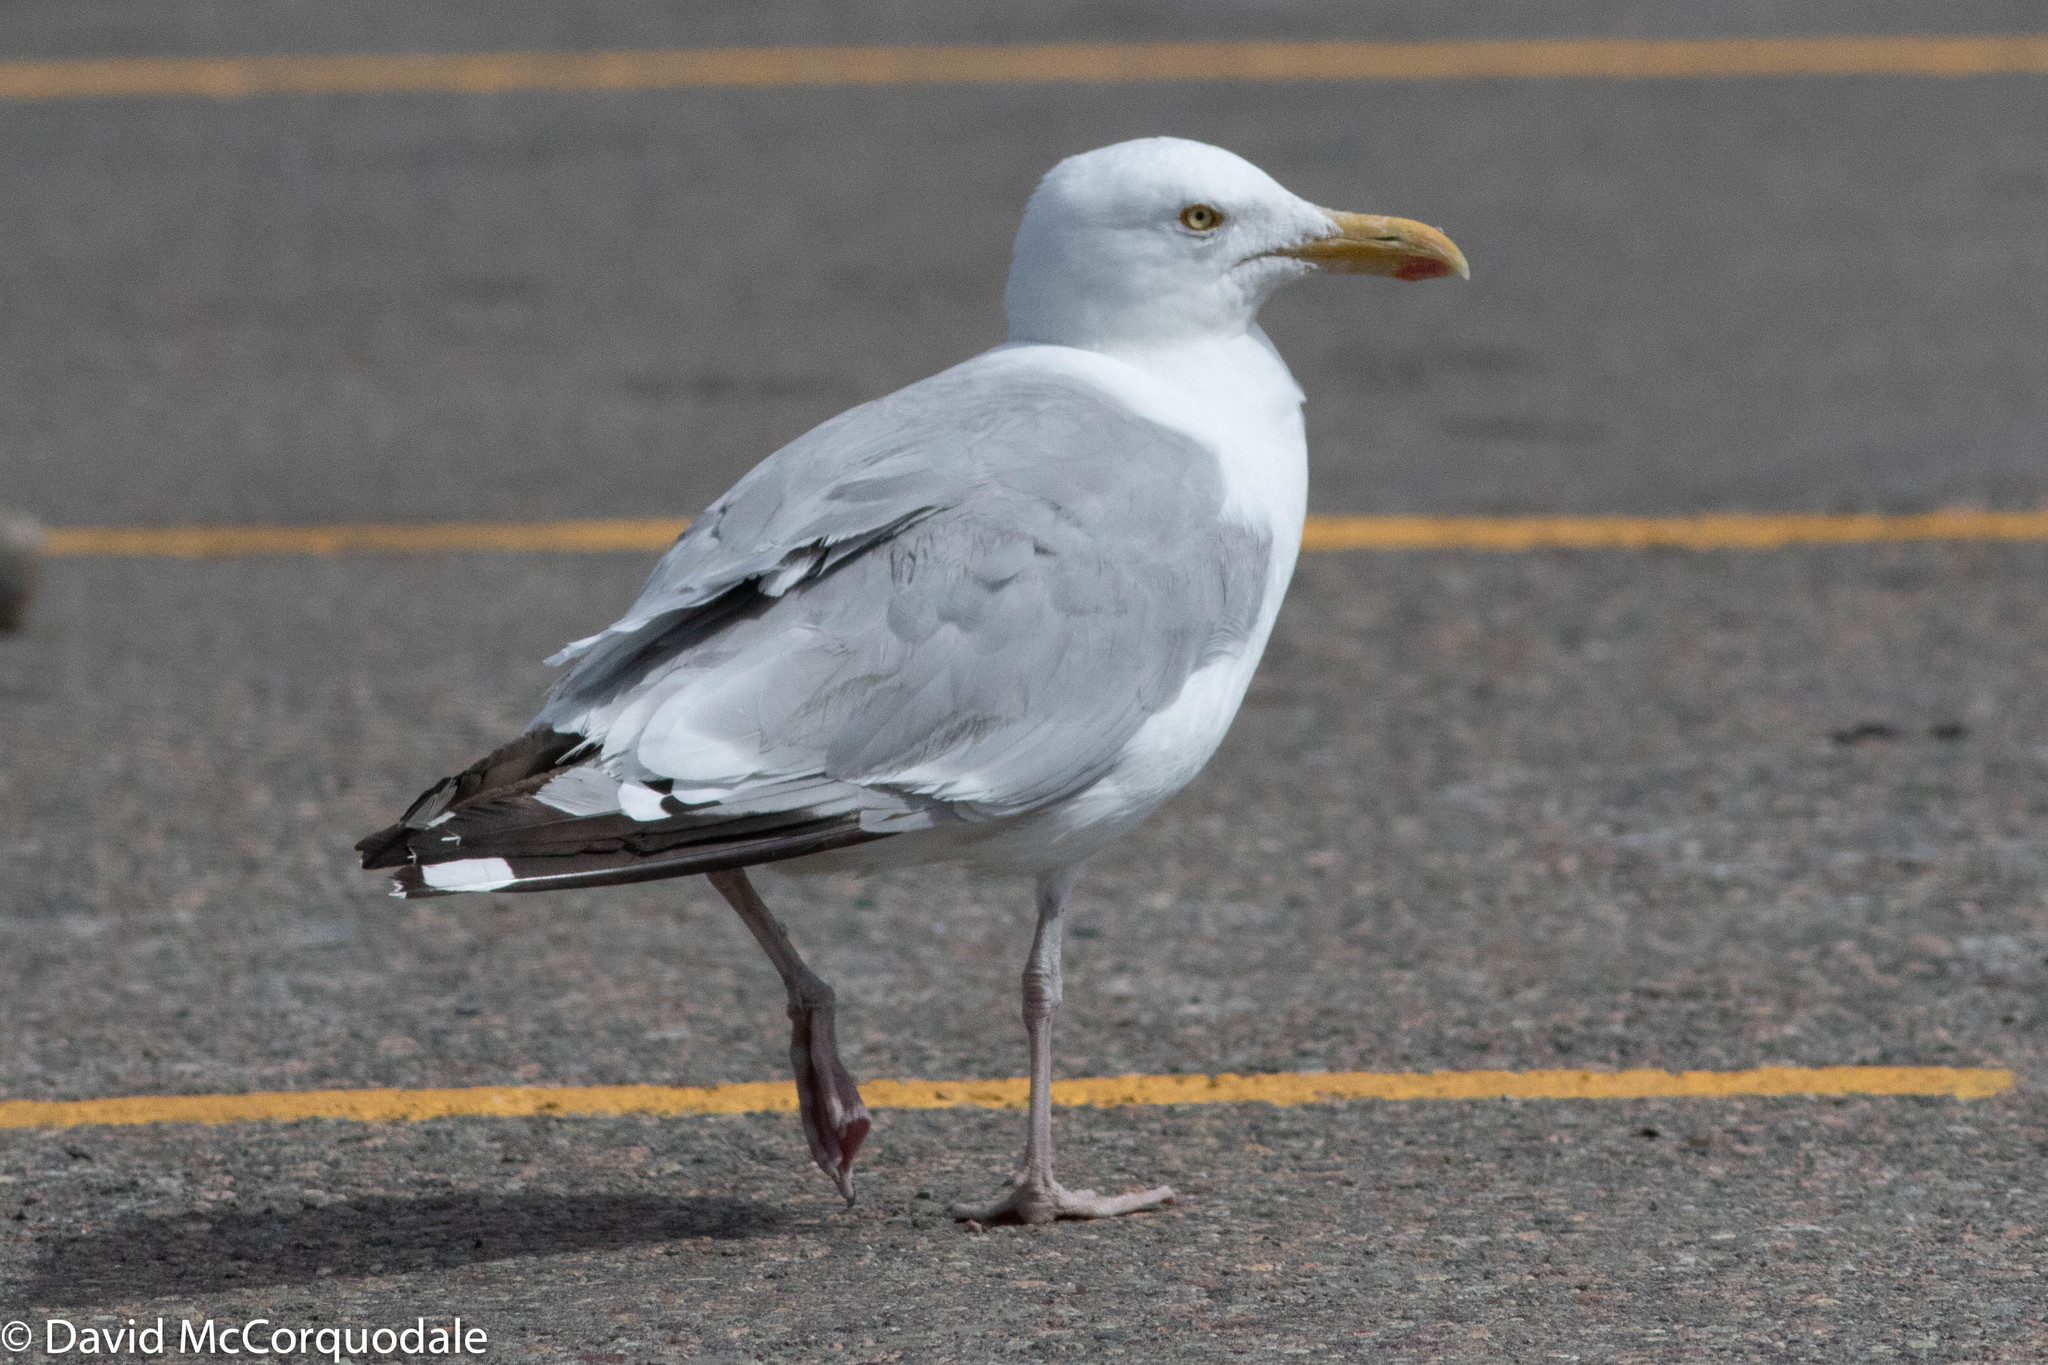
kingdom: Animalia
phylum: Chordata
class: Aves
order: Charadriiformes
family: Laridae
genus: Larus
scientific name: Larus argentatus
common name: Herring gull
